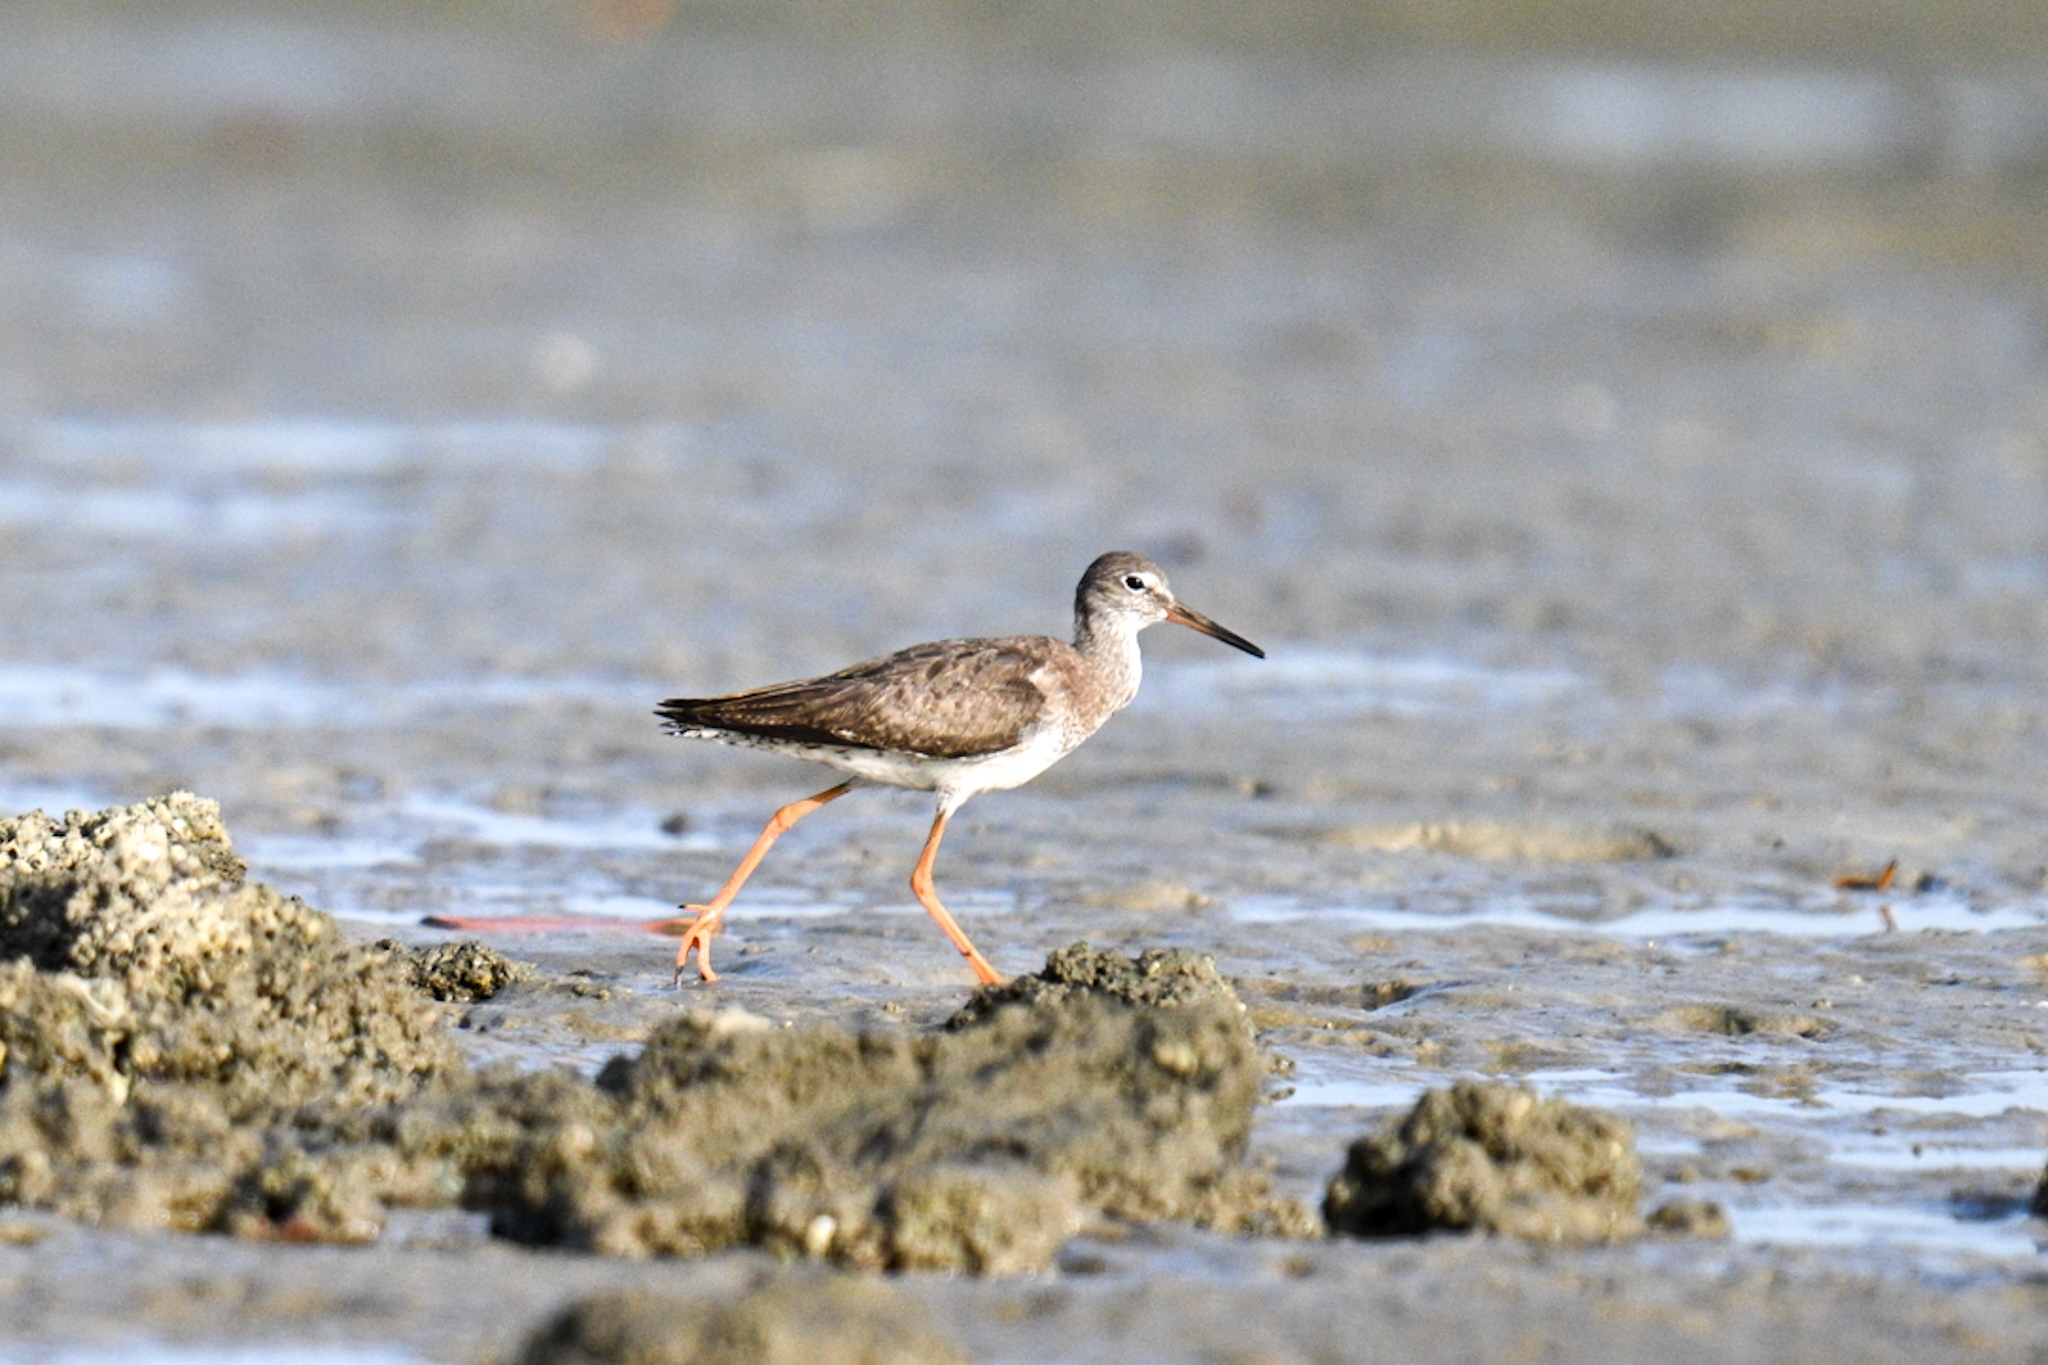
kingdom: Animalia
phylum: Chordata
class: Aves
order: Charadriiformes
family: Scolopacidae
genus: Tringa
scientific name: Tringa totanus
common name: Common redshank
